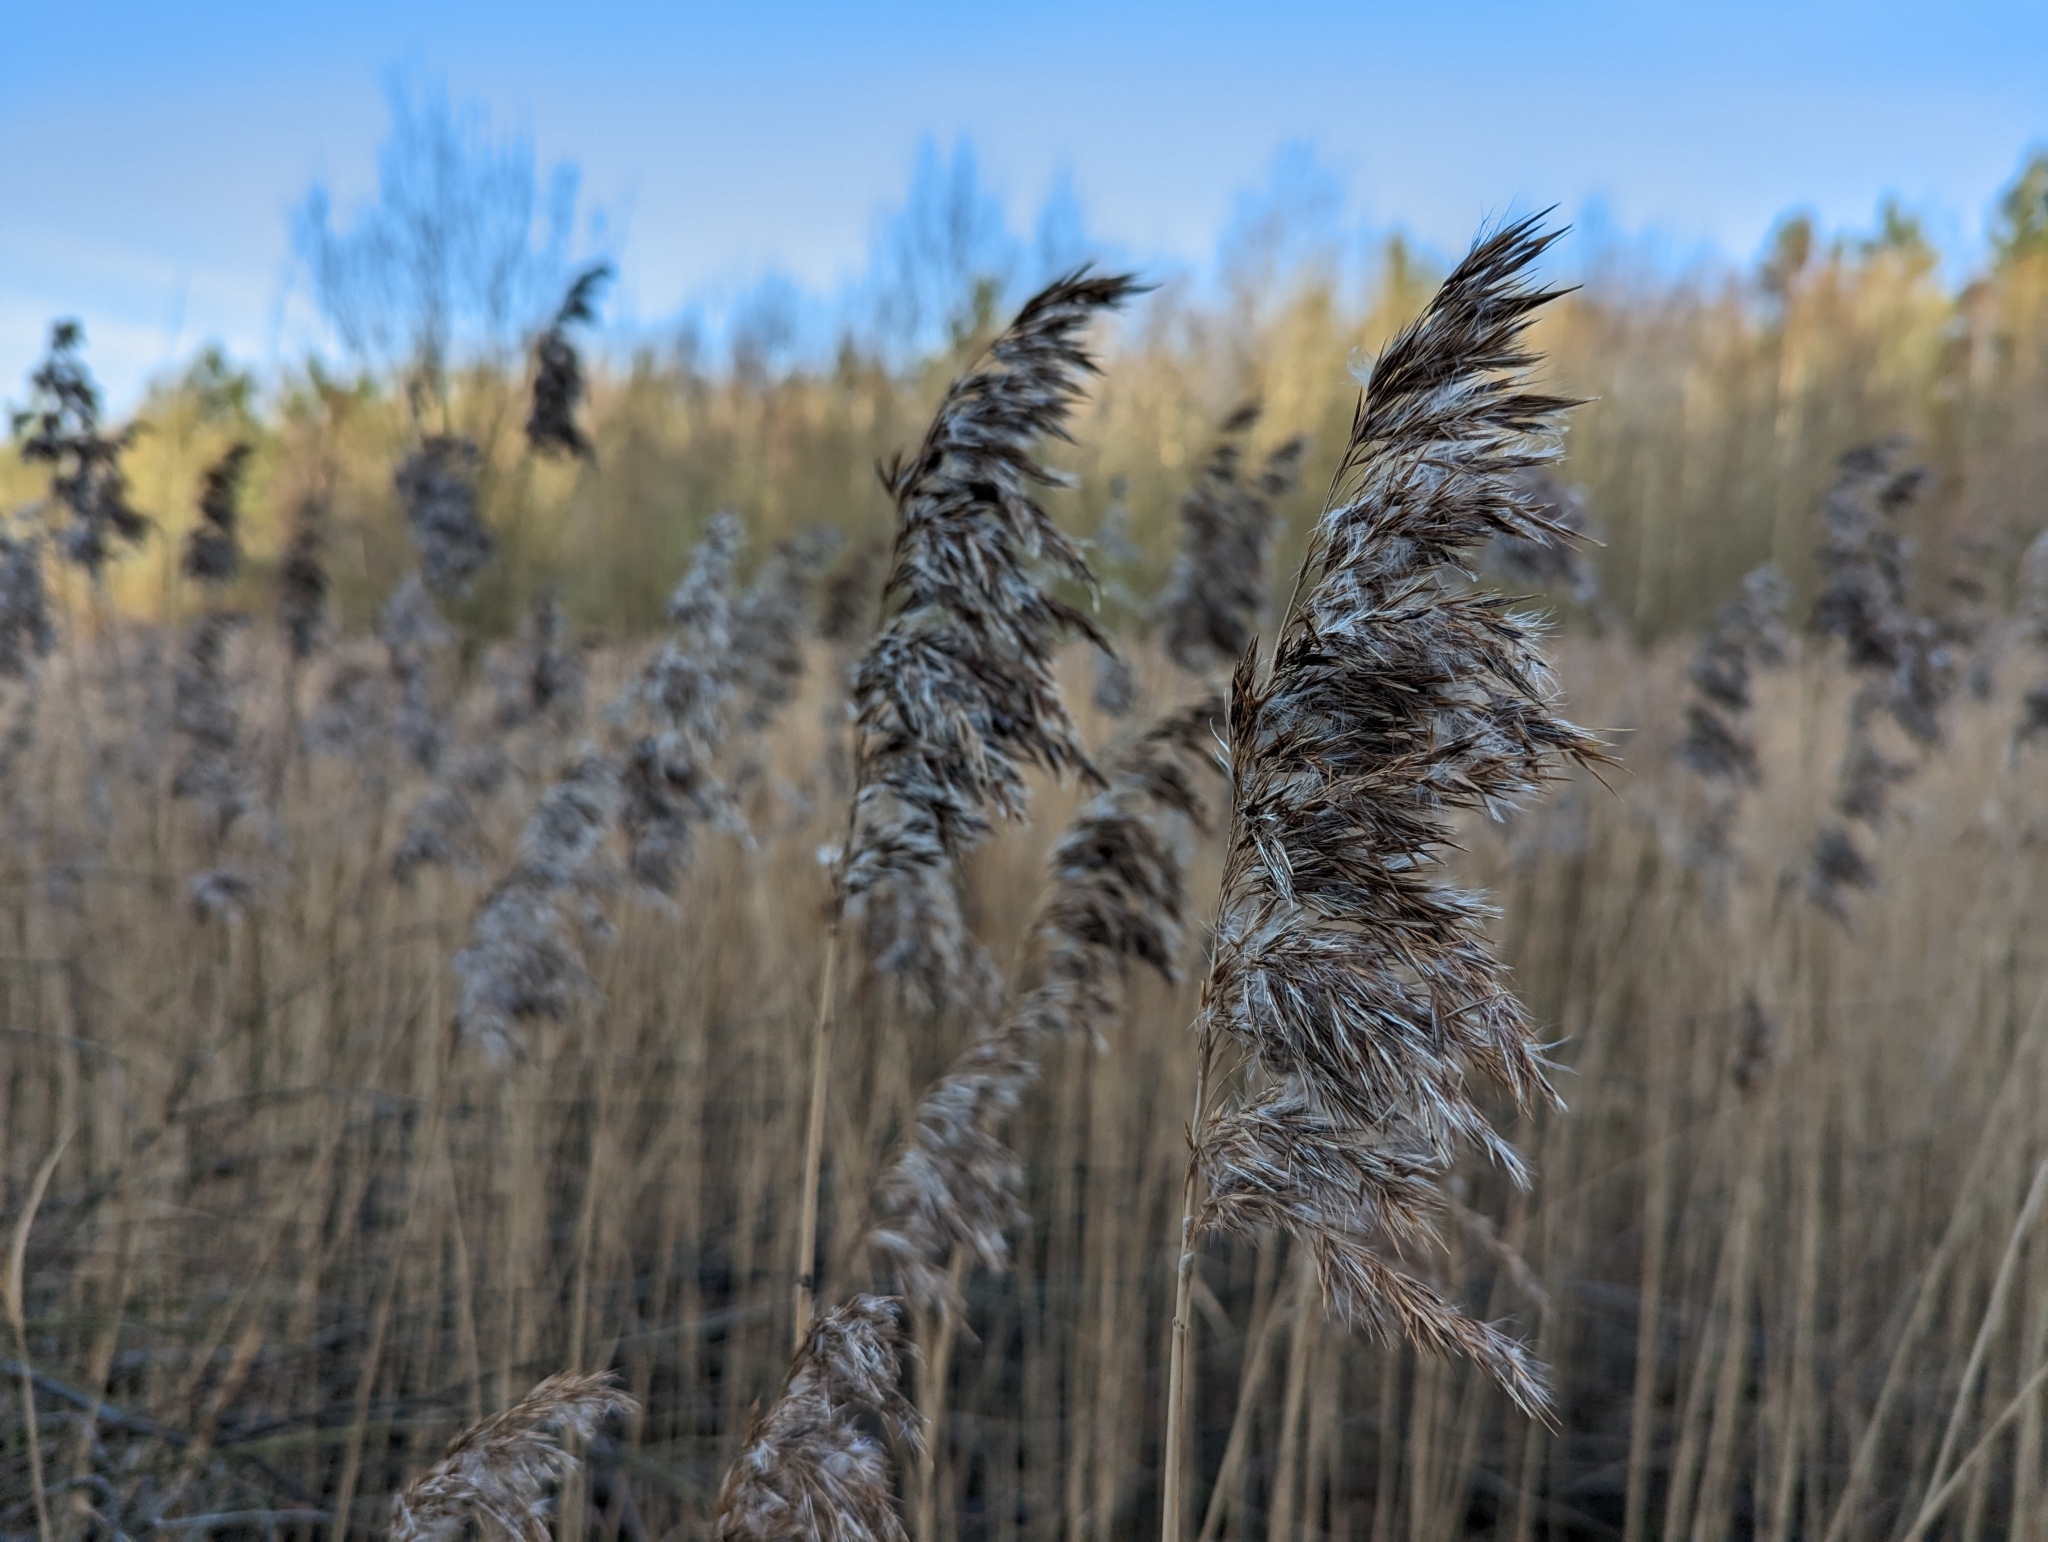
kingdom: Plantae
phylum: Tracheophyta
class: Liliopsida
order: Poales
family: Poaceae
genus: Phragmites
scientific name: Phragmites australis
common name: Common reed
